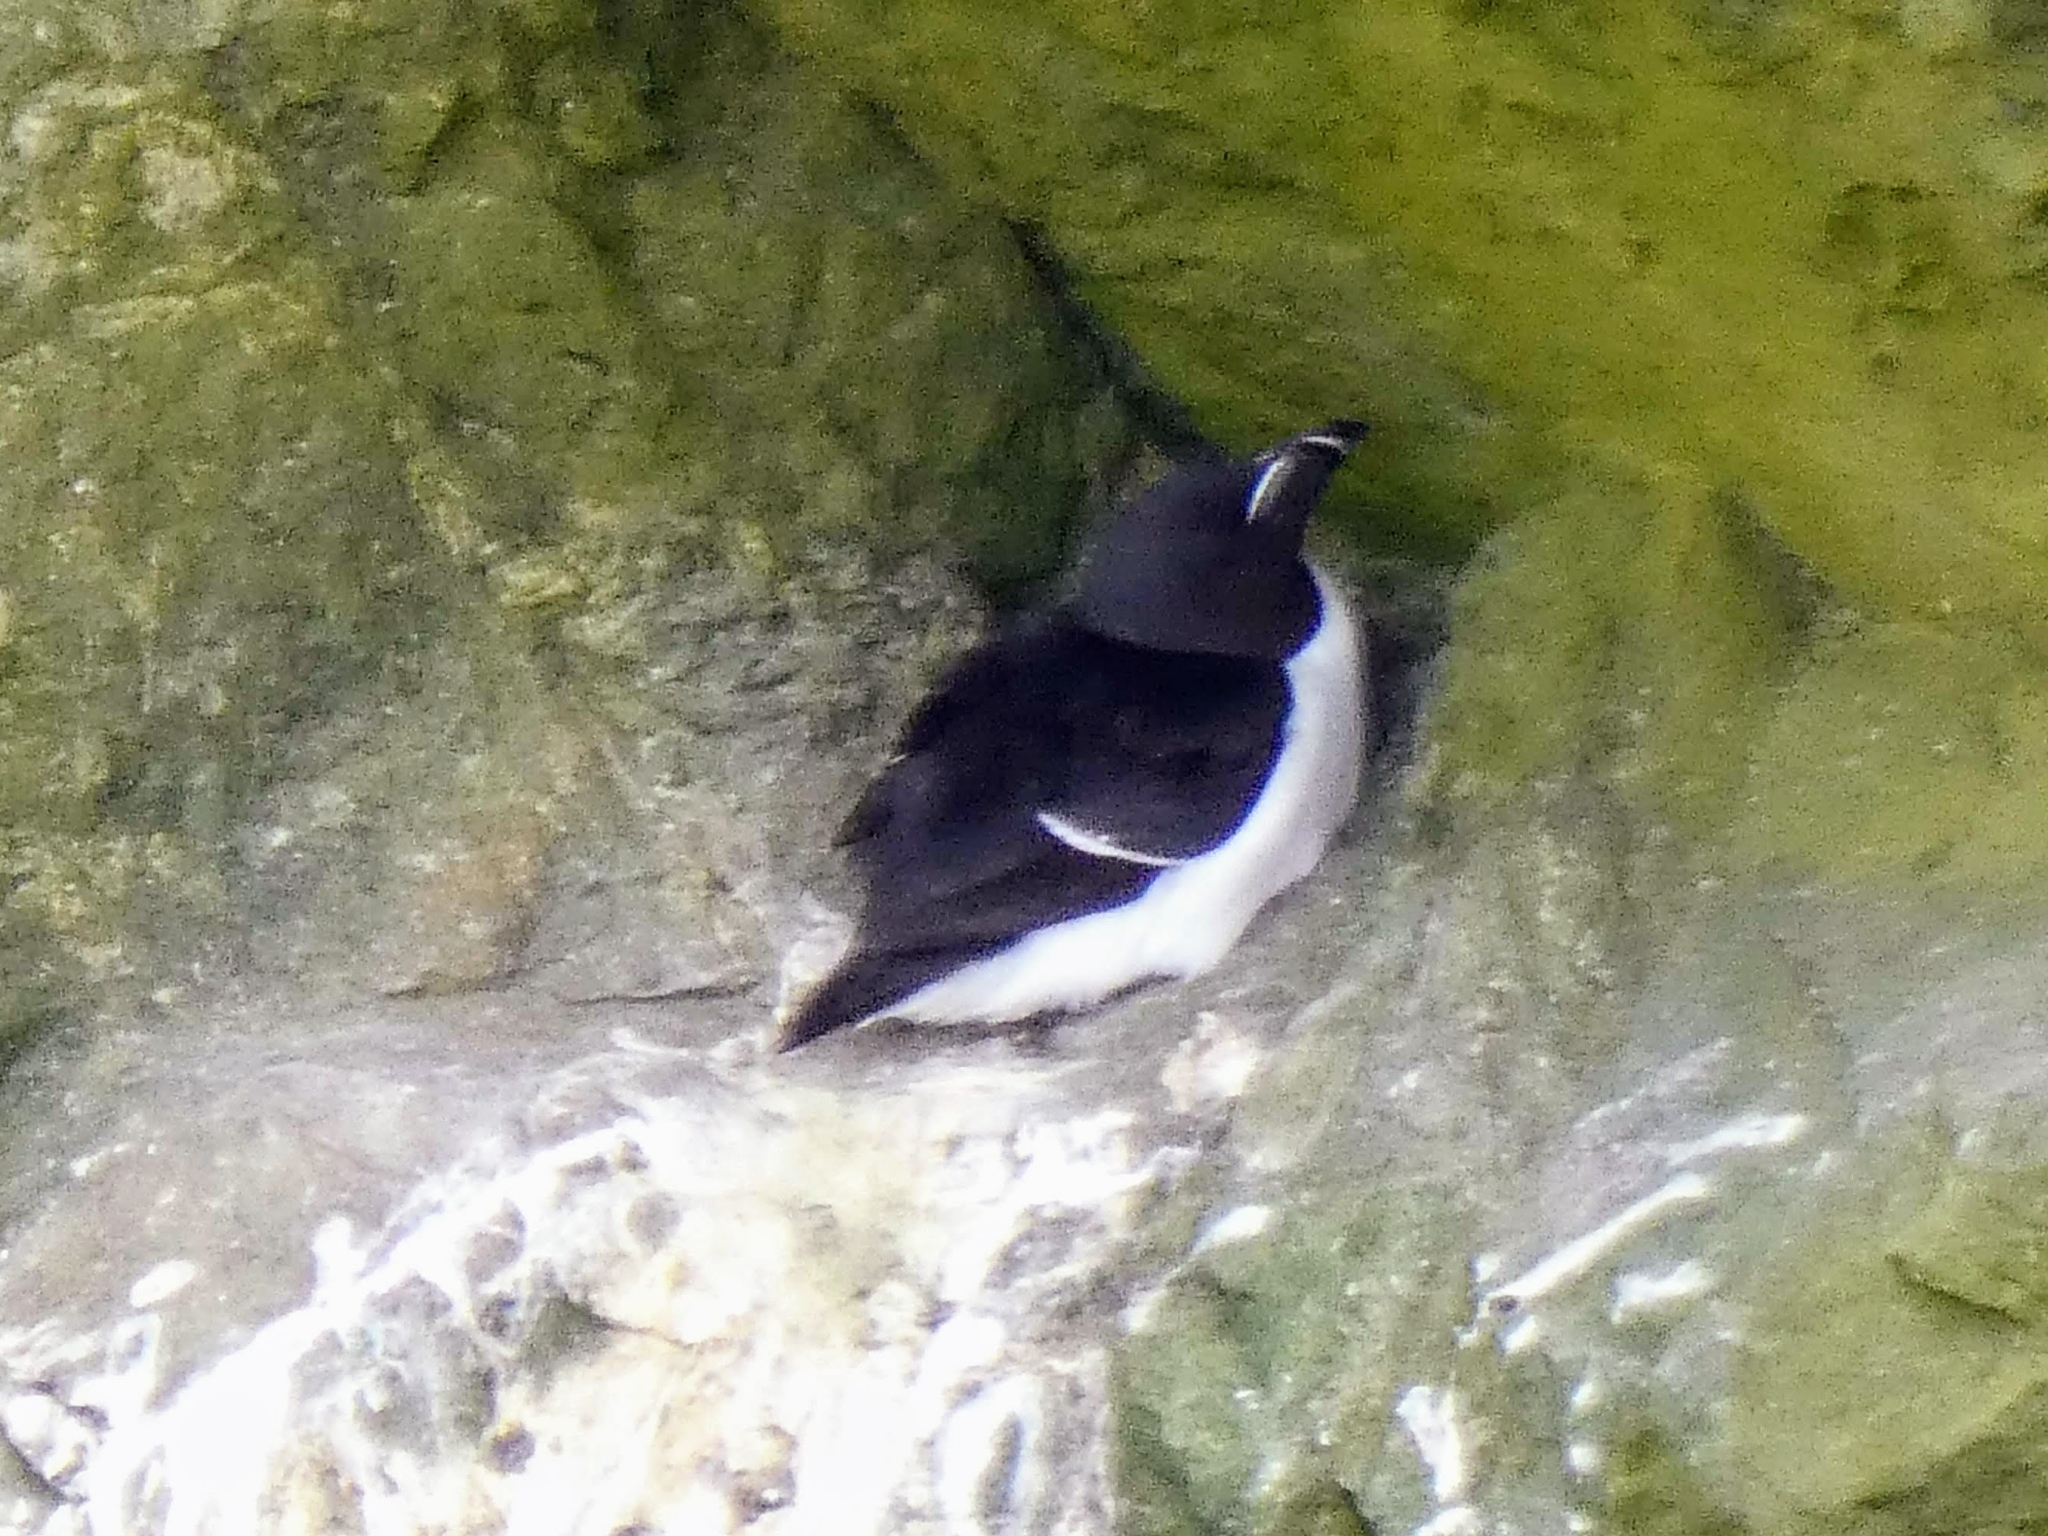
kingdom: Animalia
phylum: Chordata
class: Aves
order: Charadriiformes
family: Alcidae
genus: Alca
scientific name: Alca torda
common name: Razorbill
